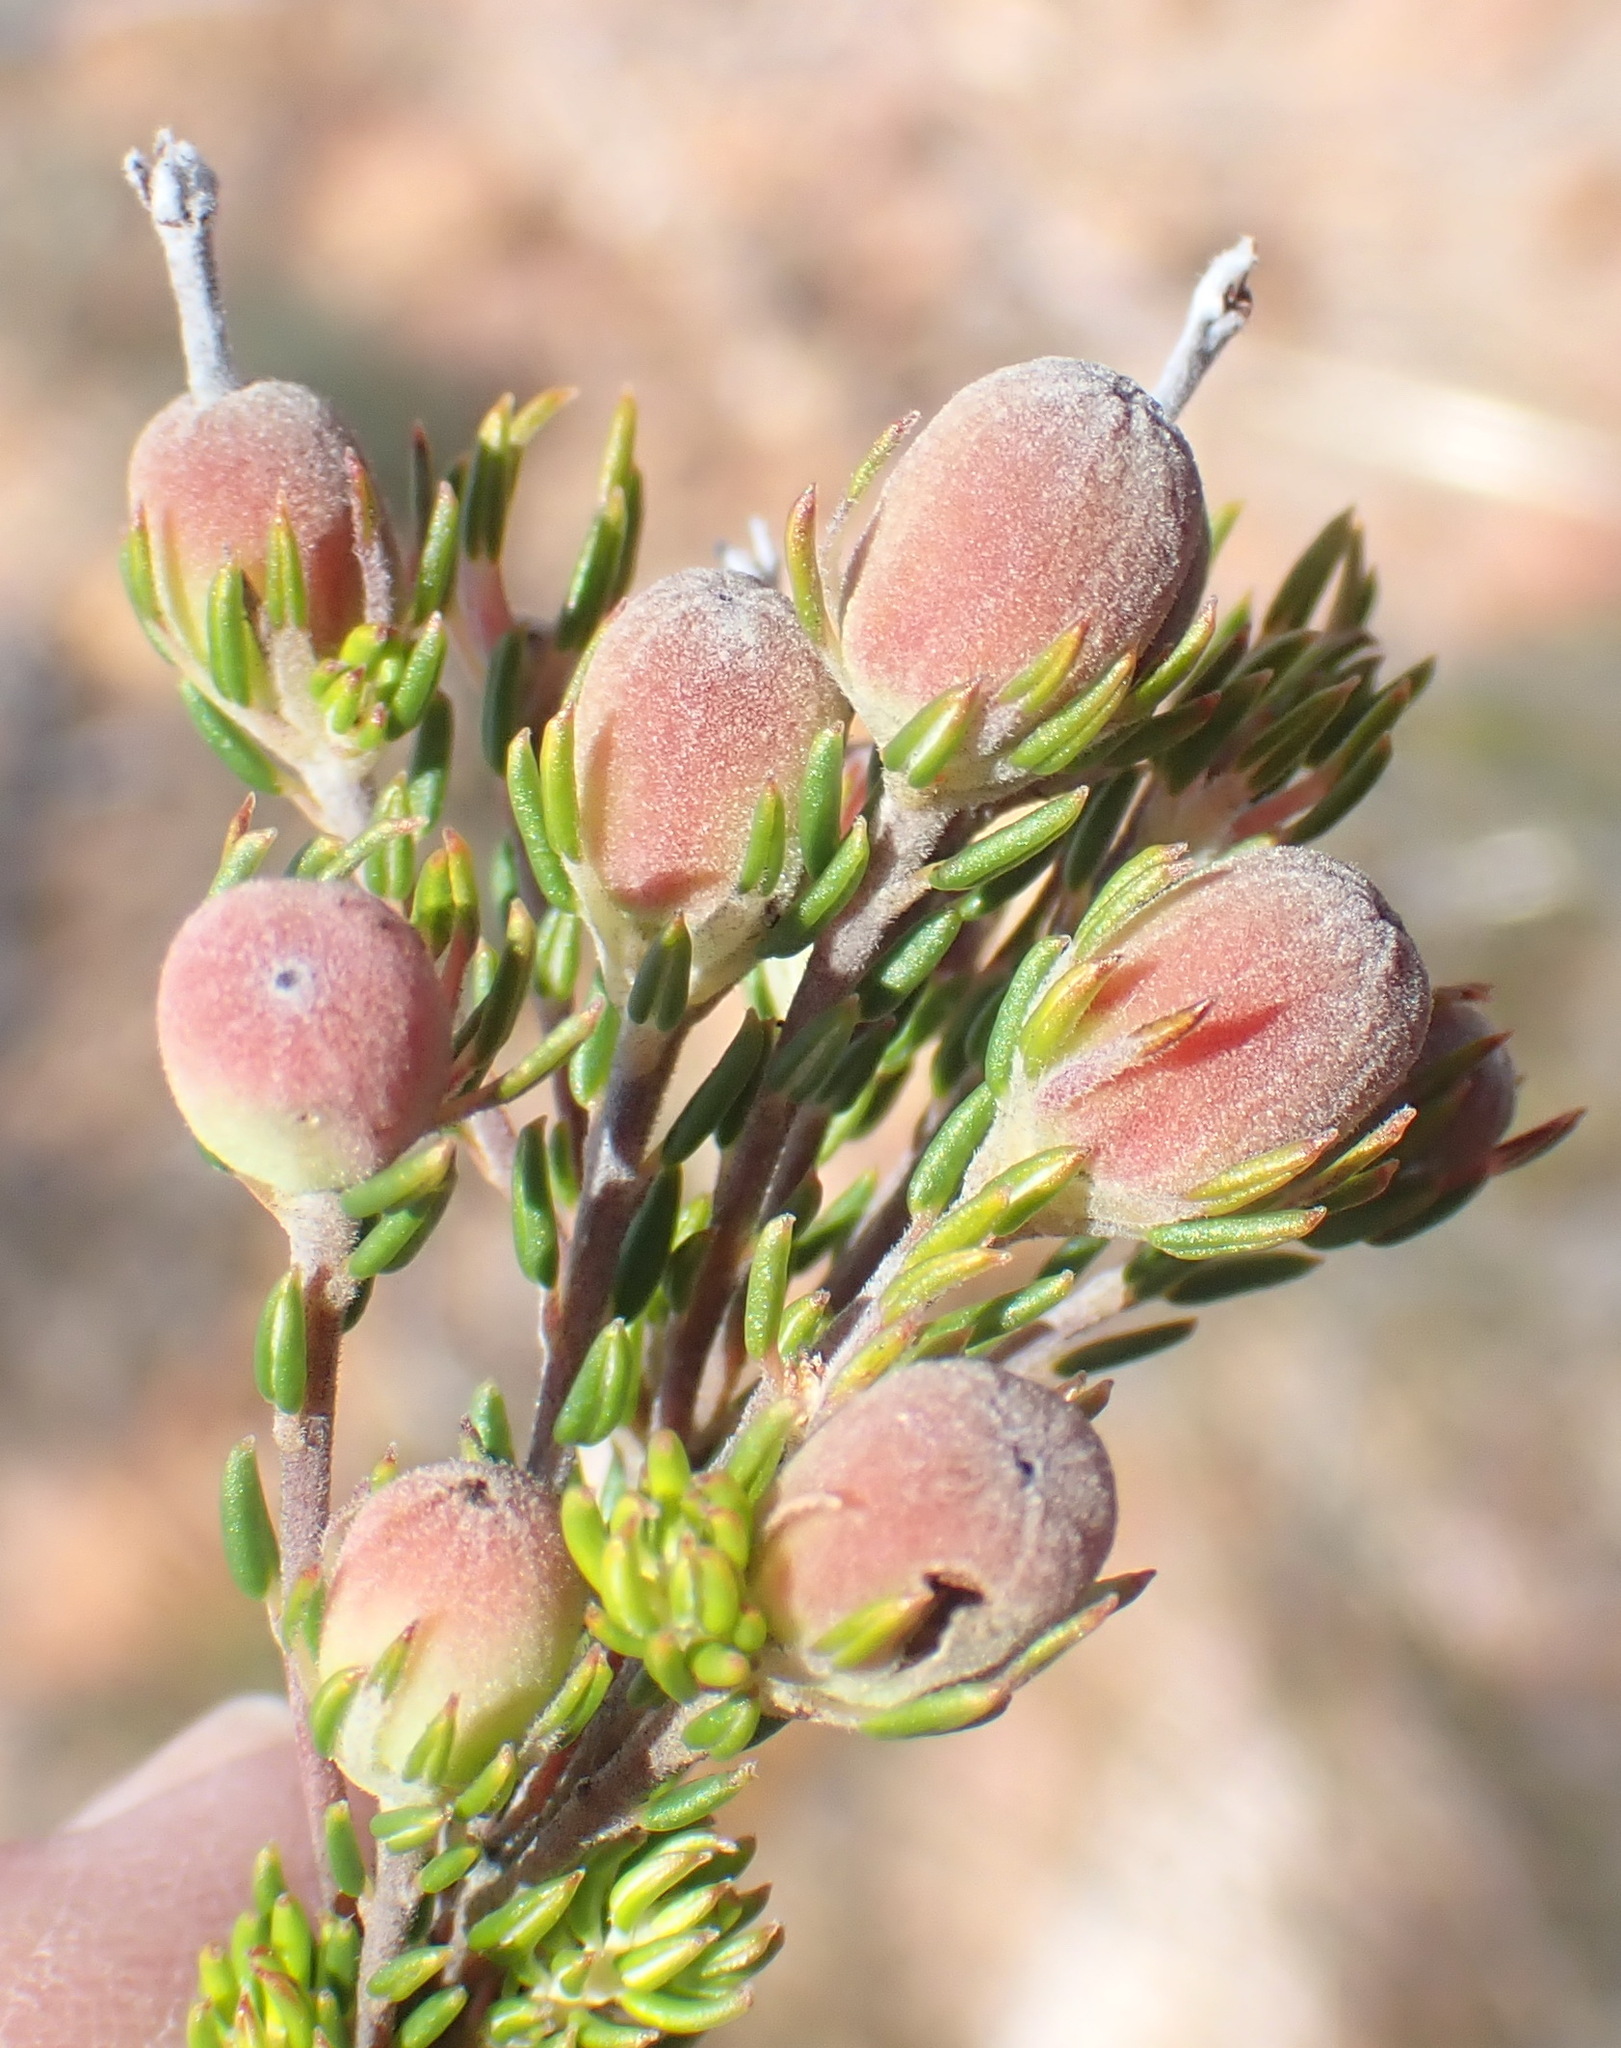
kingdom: Plantae
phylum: Tracheophyta
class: Magnoliopsida
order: Rosales
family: Rhamnaceae
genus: Phylica
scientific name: Phylica lachneaeoides
